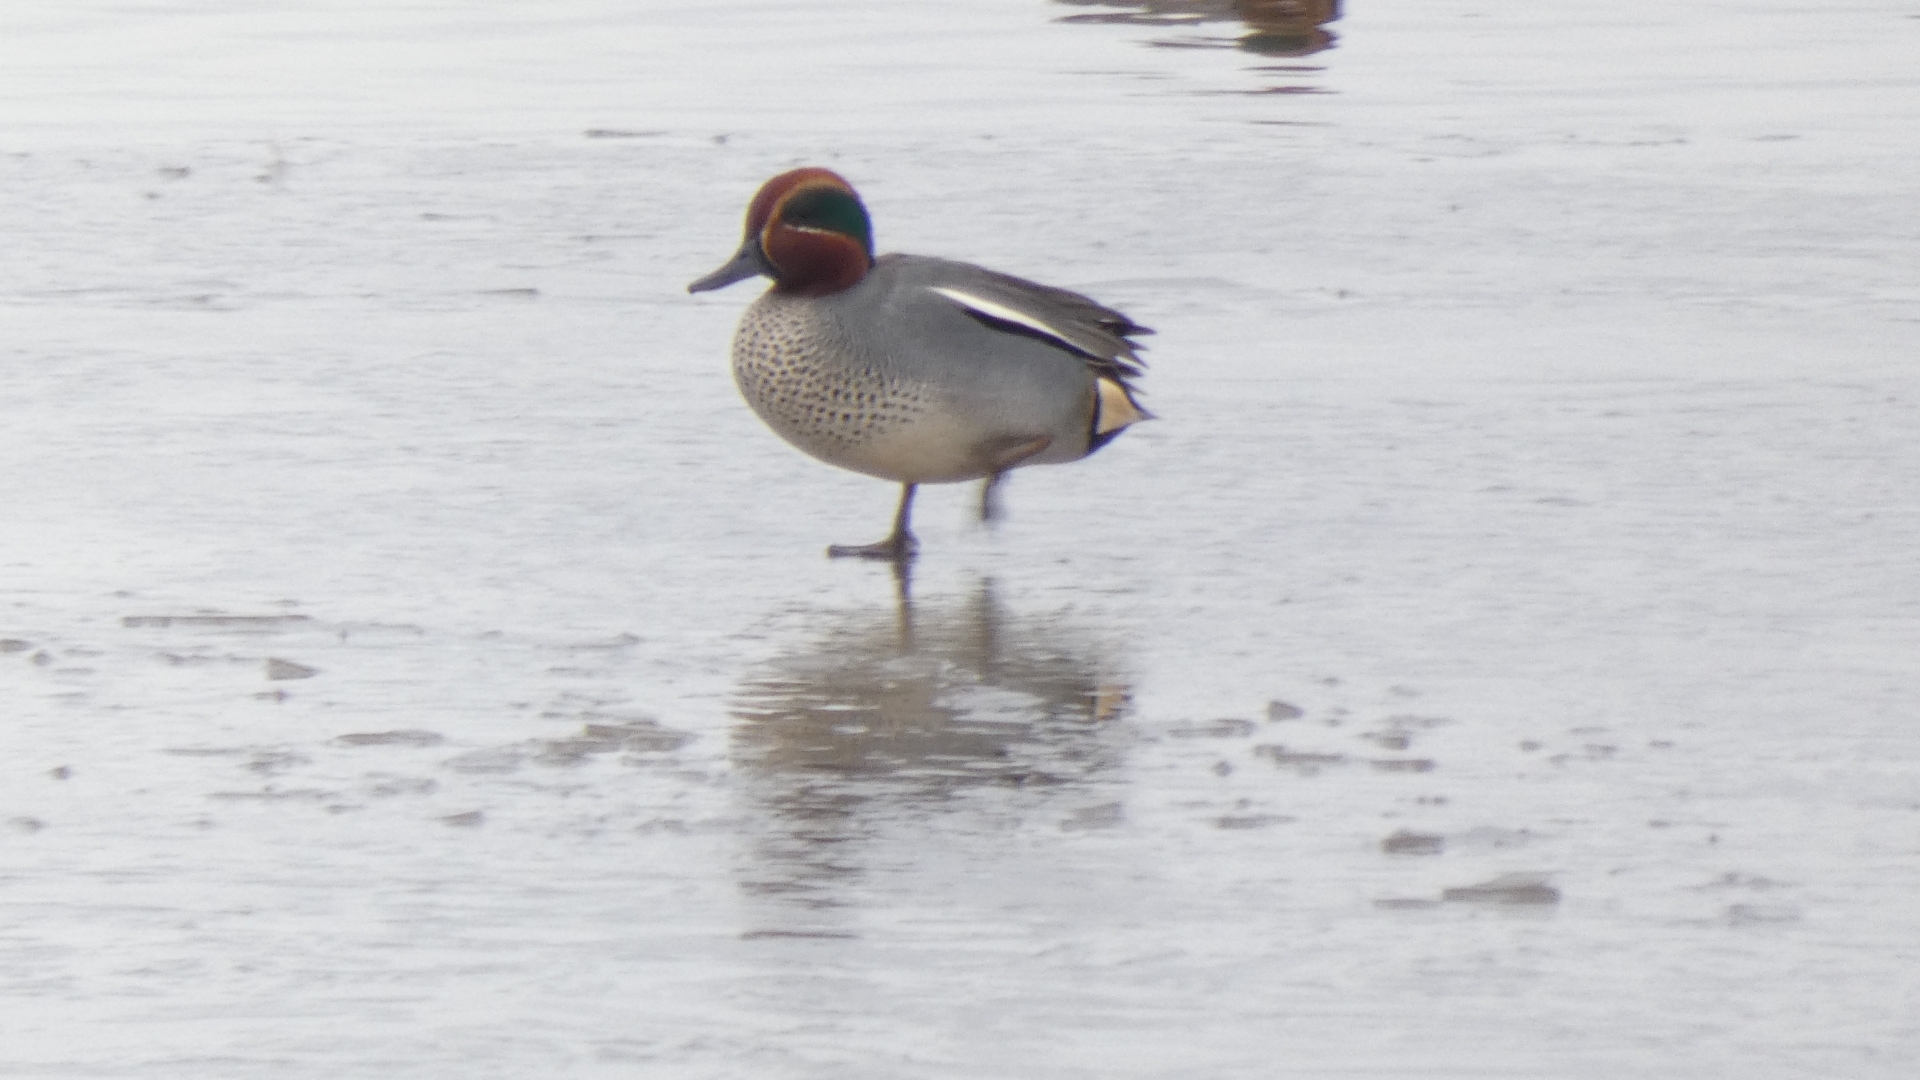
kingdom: Animalia
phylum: Chordata
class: Aves
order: Anseriformes
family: Anatidae
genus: Anas
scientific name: Anas crecca
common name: Eurasian teal
